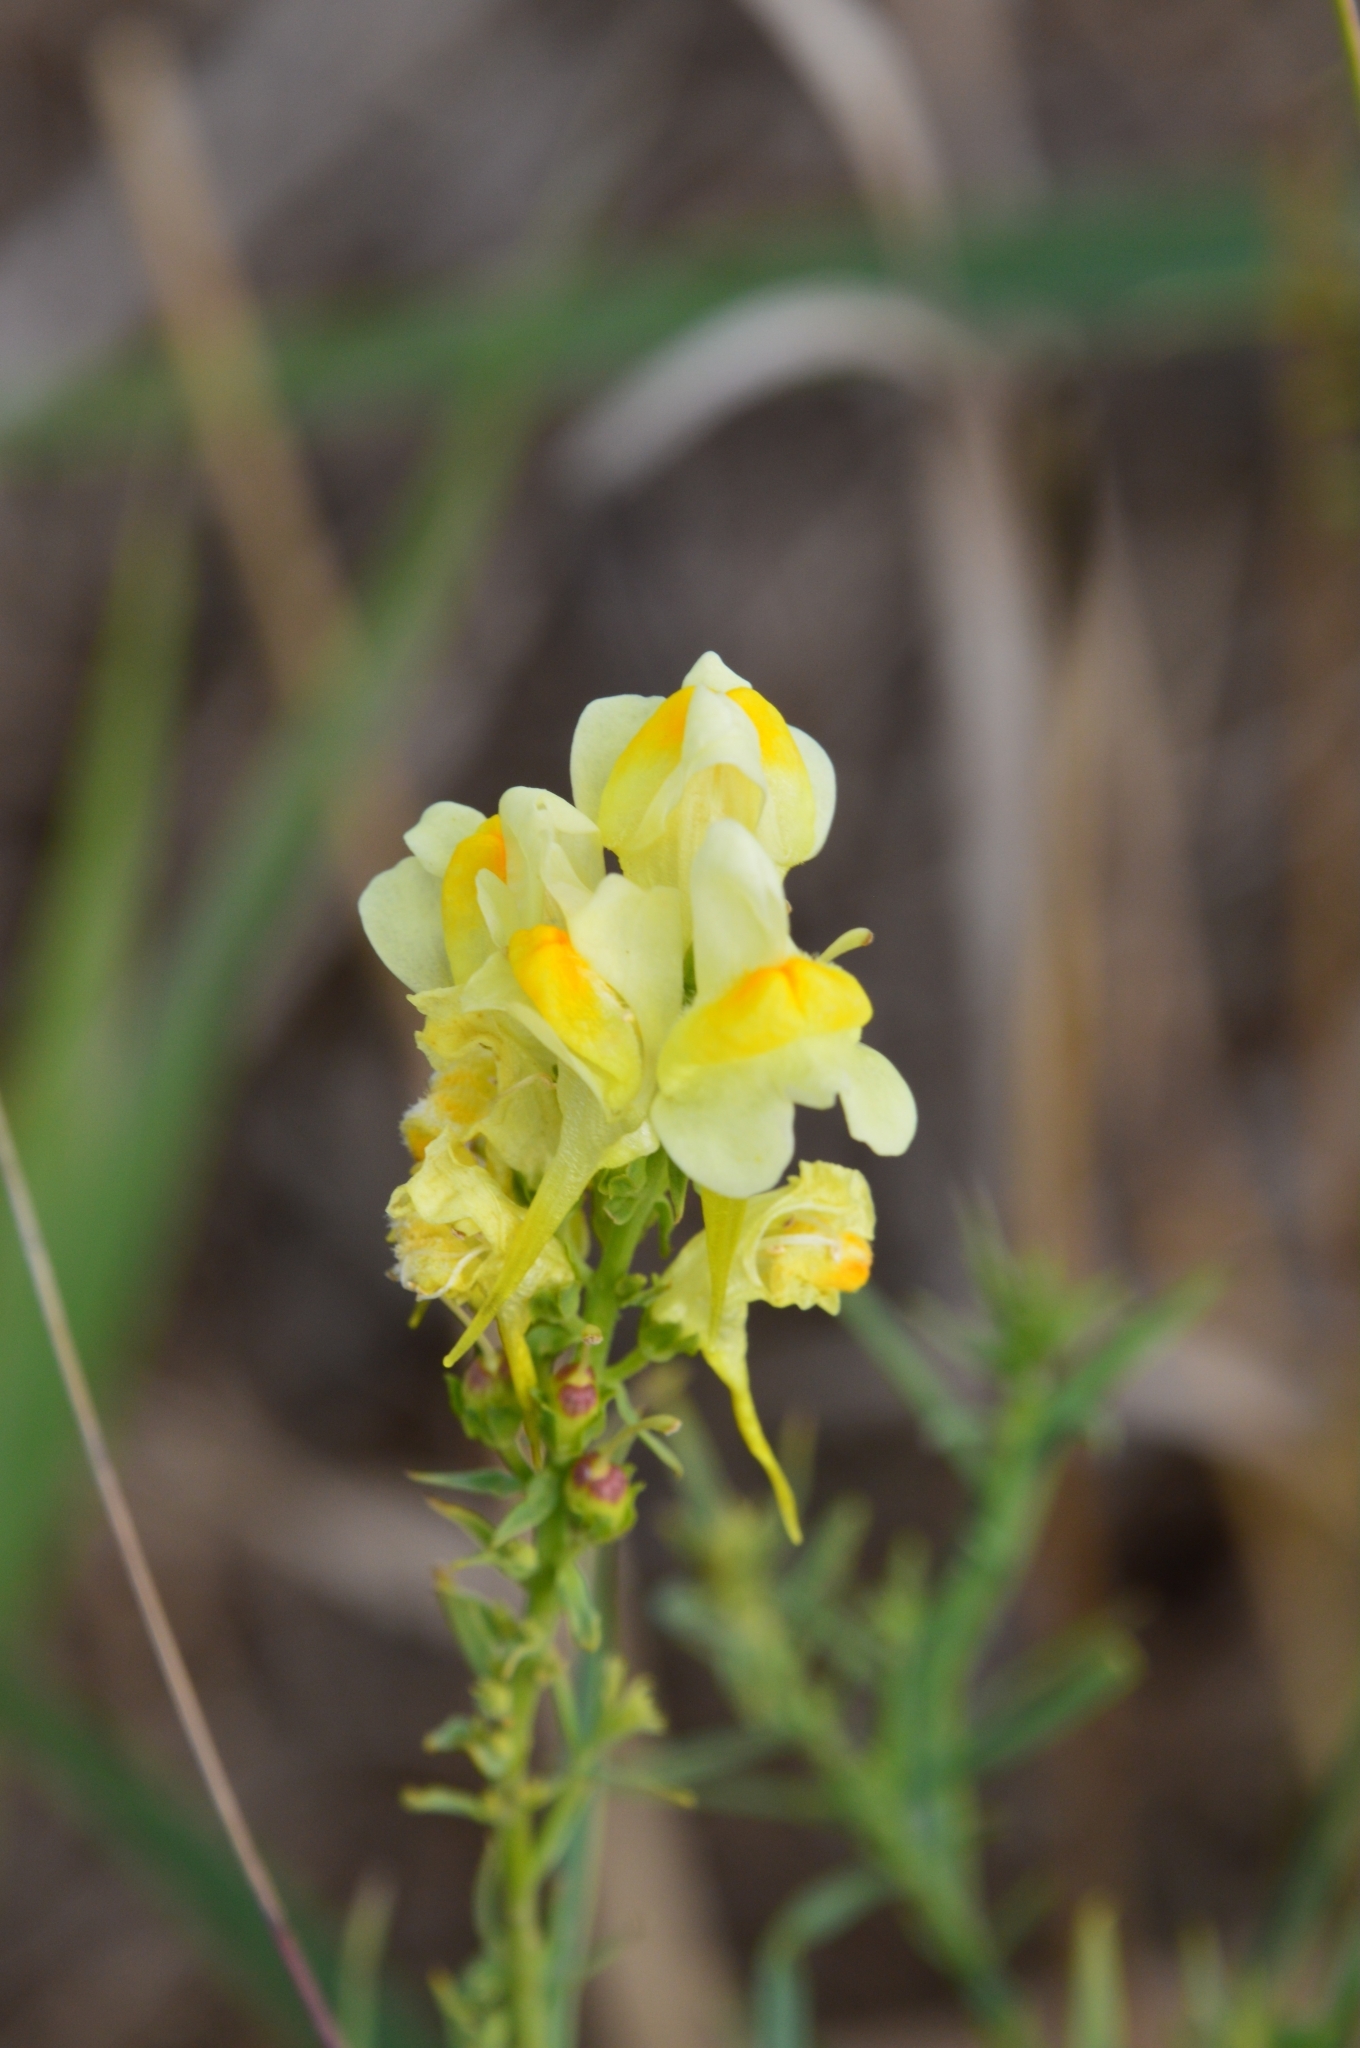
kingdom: Plantae
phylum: Tracheophyta
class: Magnoliopsida
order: Lamiales
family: Plantaginaceae
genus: Linaria
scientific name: Linaria vulgaris
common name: Butter and eggs
